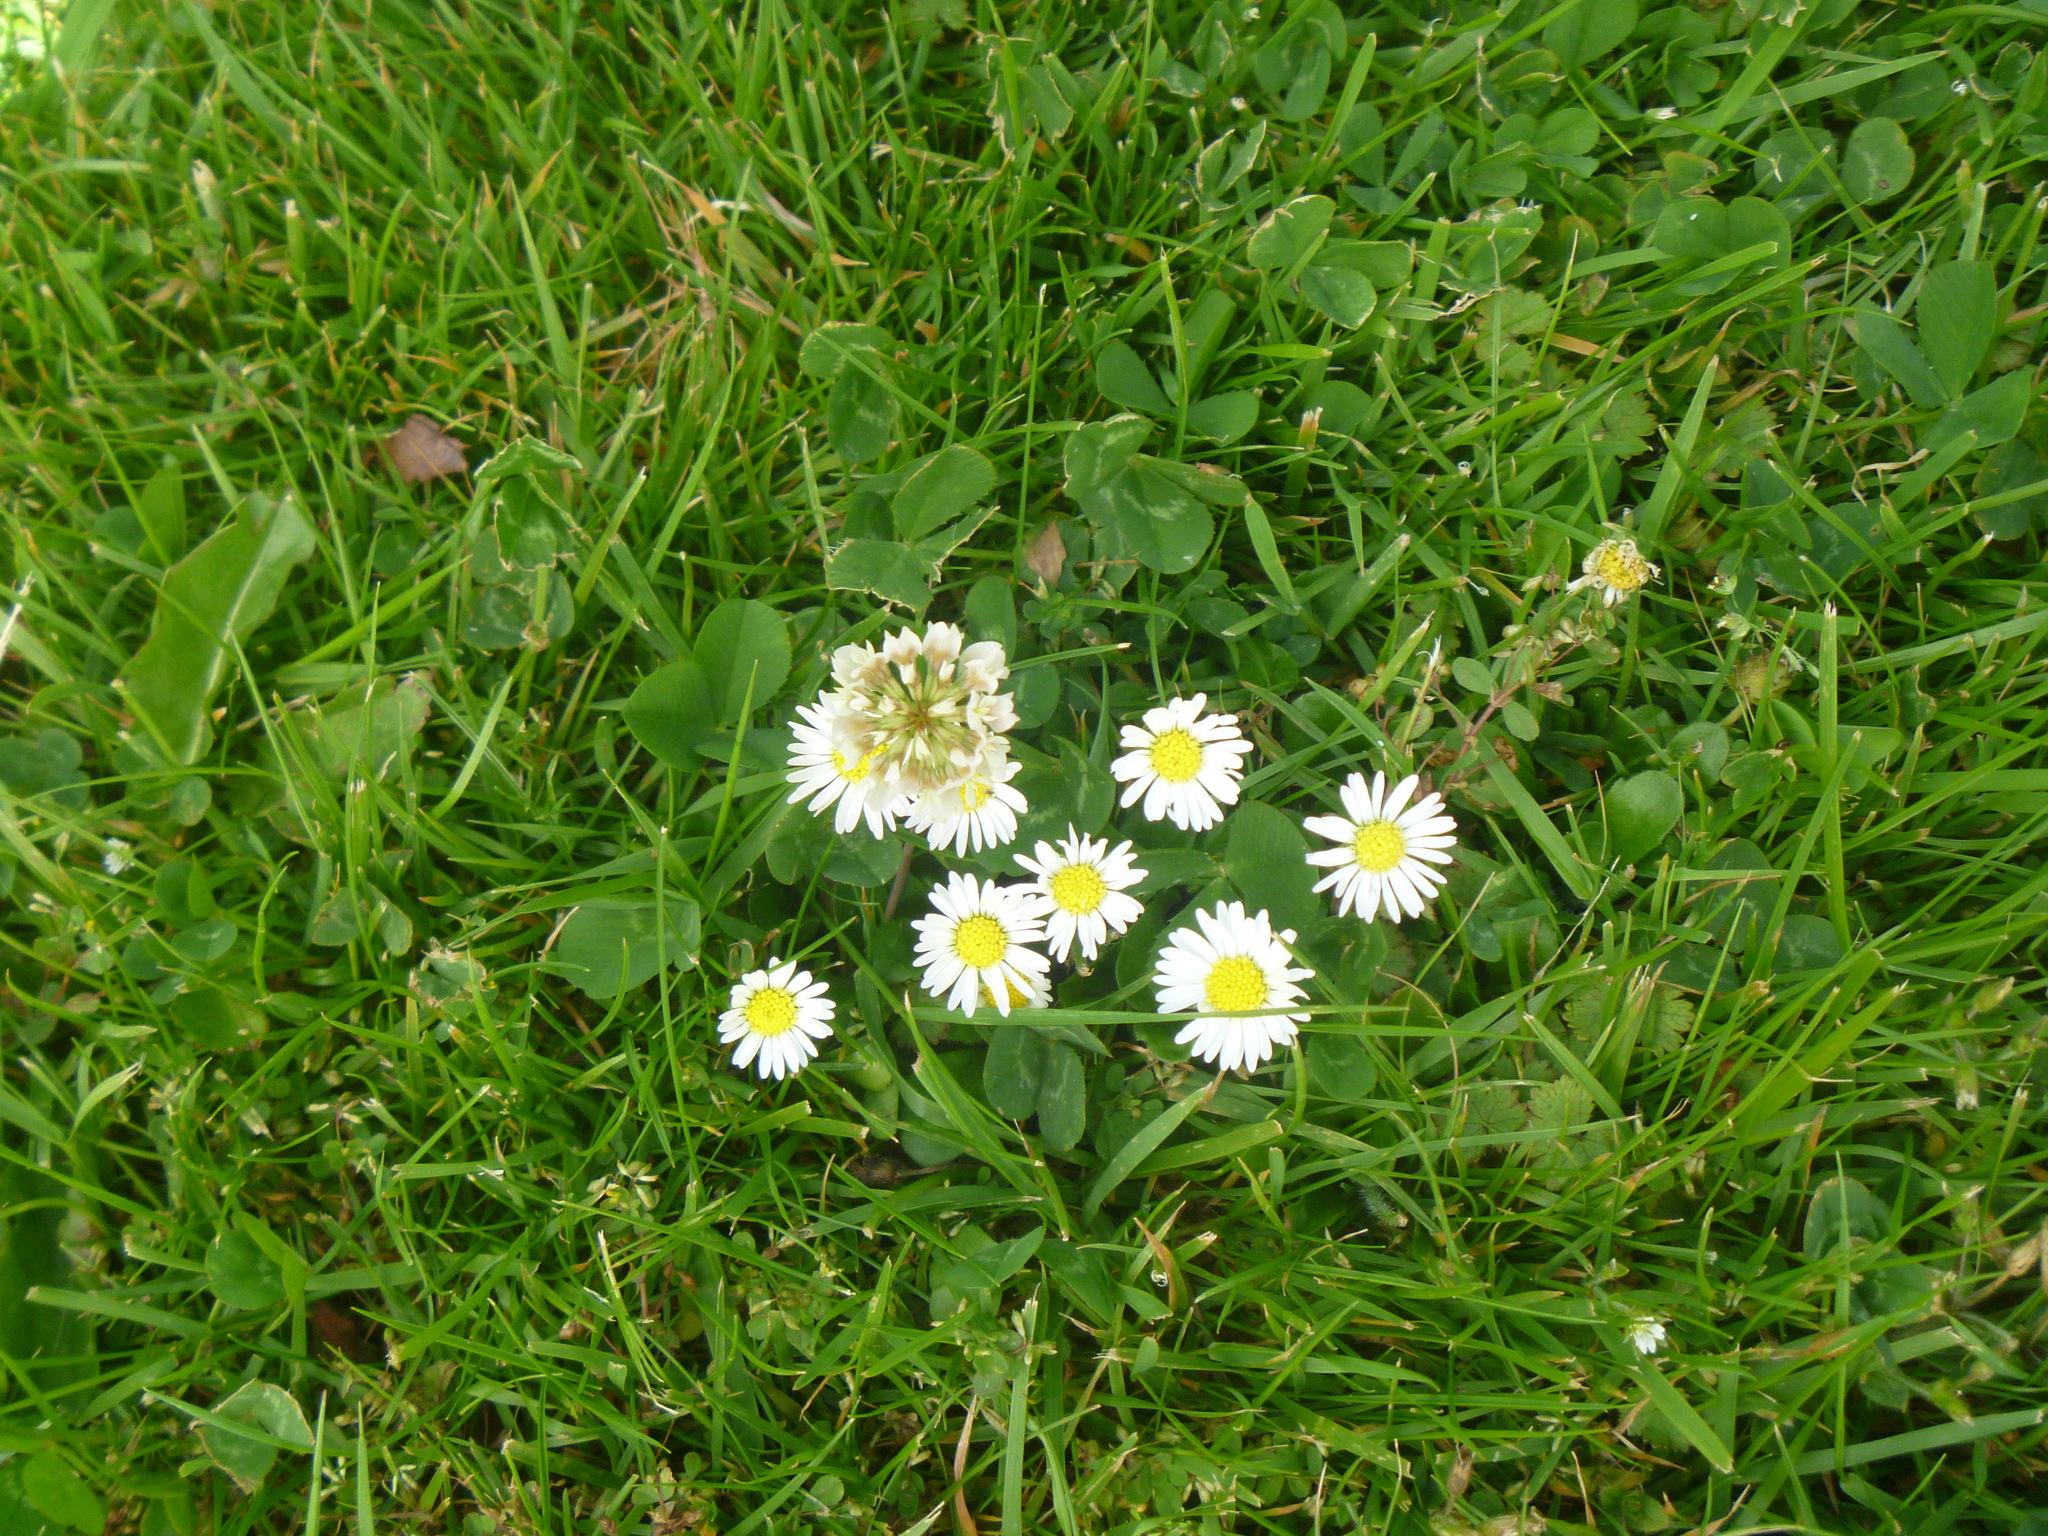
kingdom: Plantae
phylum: Tracheophyta
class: Magnoliopsida
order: Asterales
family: Asteraceae
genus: Bellis
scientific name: Bellis perennis
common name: Lawndaisy
